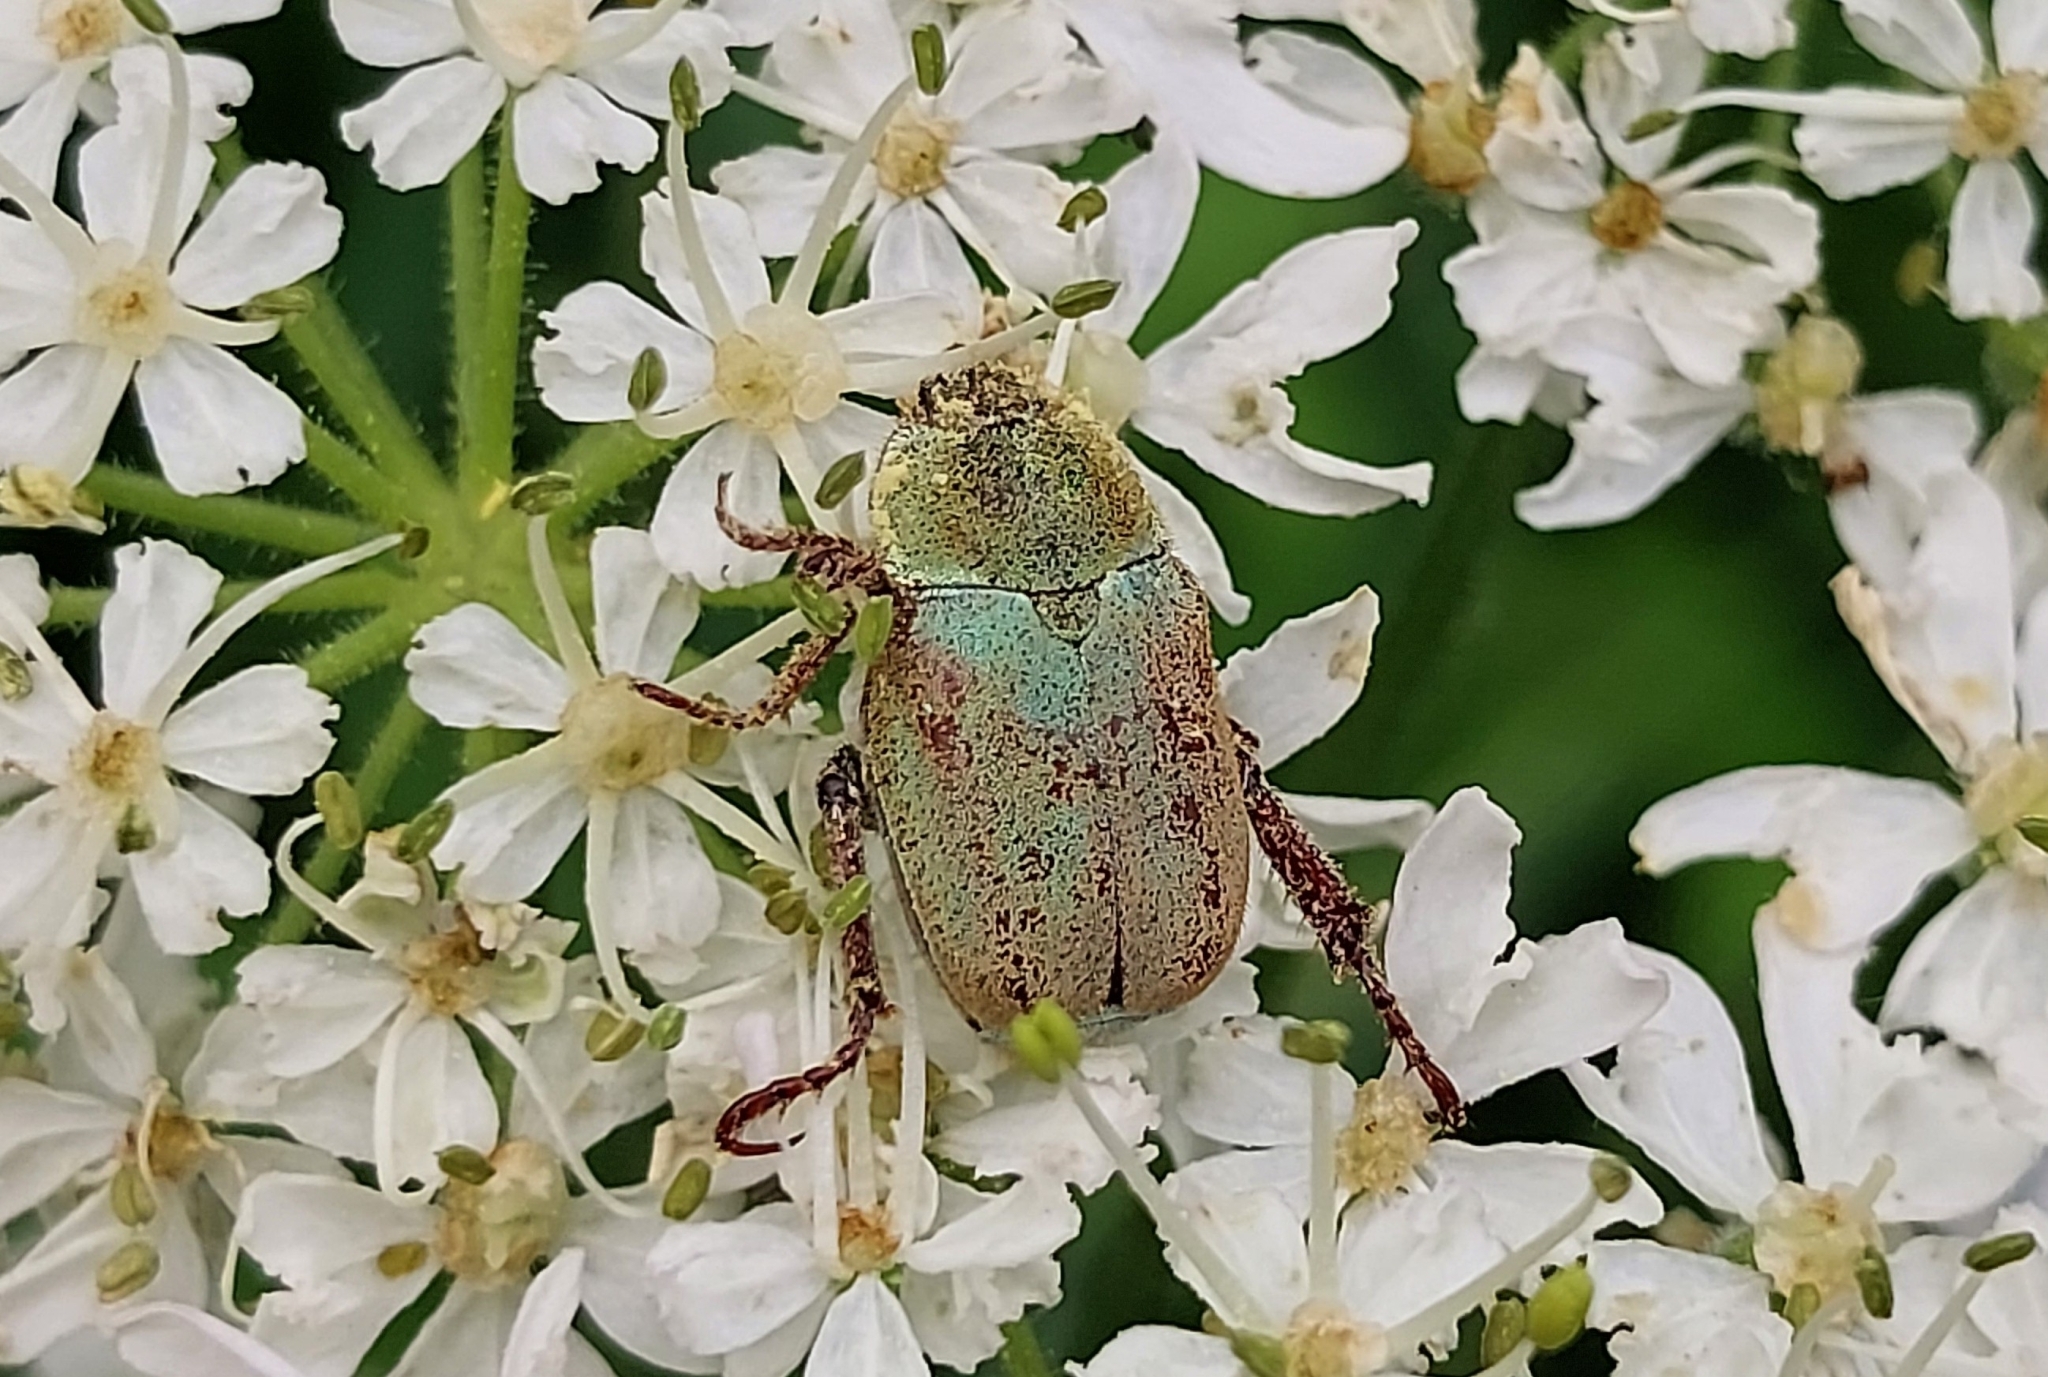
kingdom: Animalia
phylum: Arthropoda
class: Insecta
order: Coleoptera
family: Scarabaeidae
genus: Hoplia
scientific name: Hoplia argentea
